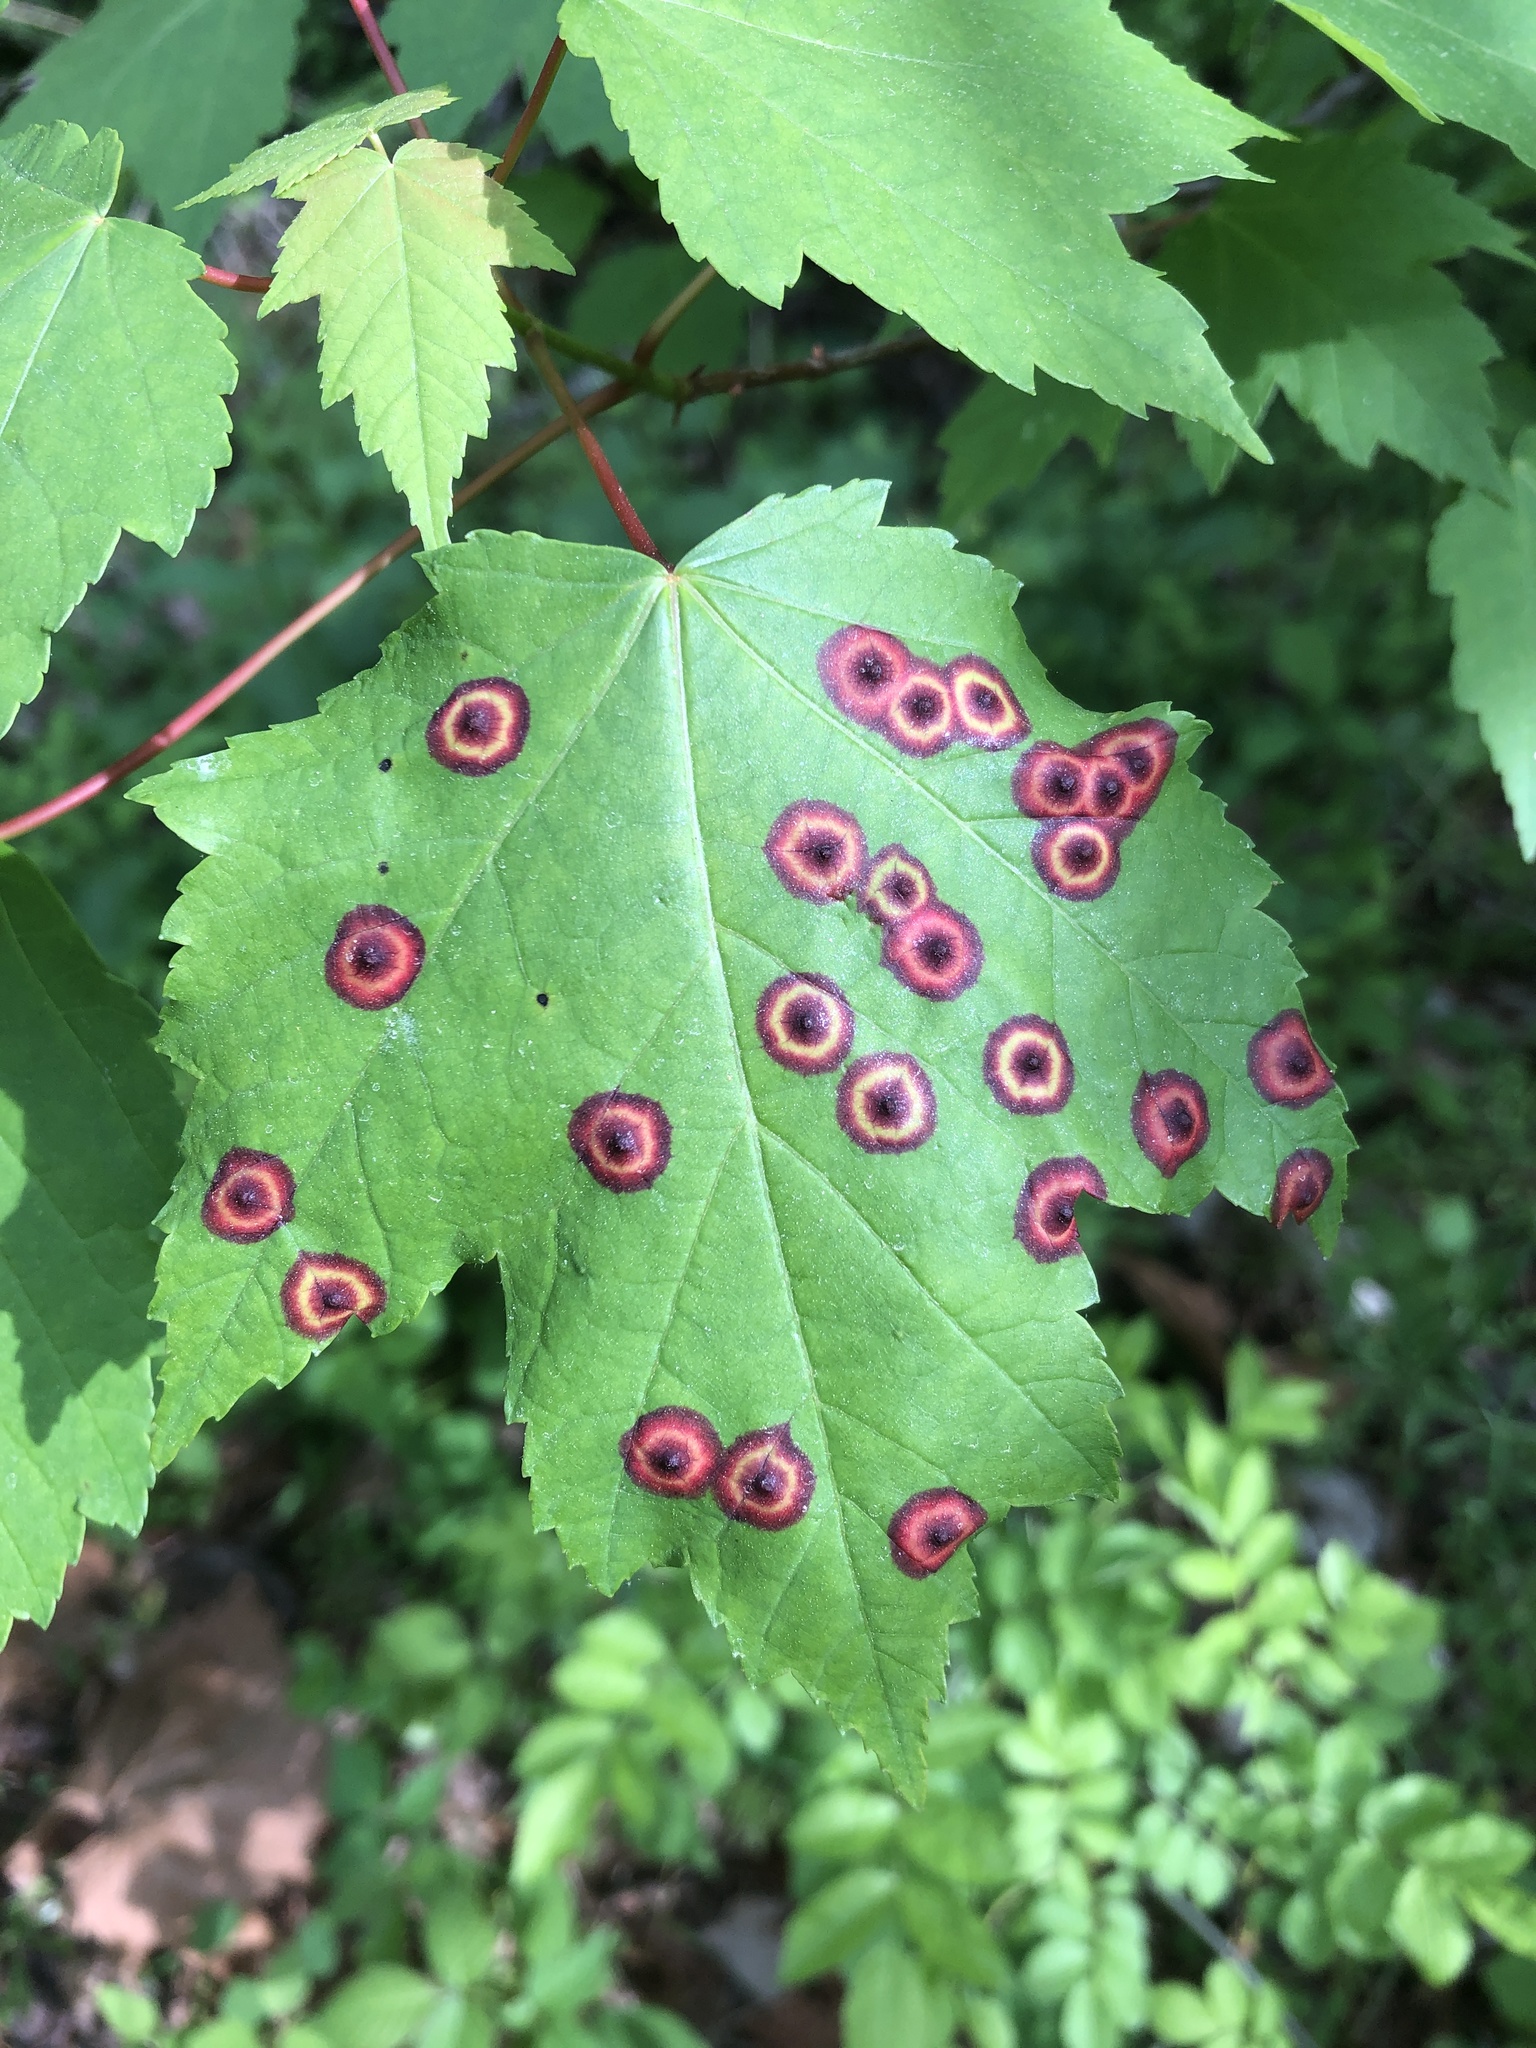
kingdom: Animalia
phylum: Arthropoda
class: Insecta
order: Diptera
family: Cecidomyiidae
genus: Acericecis
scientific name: Acericecis ocellaris
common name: Ocellate gall midge
